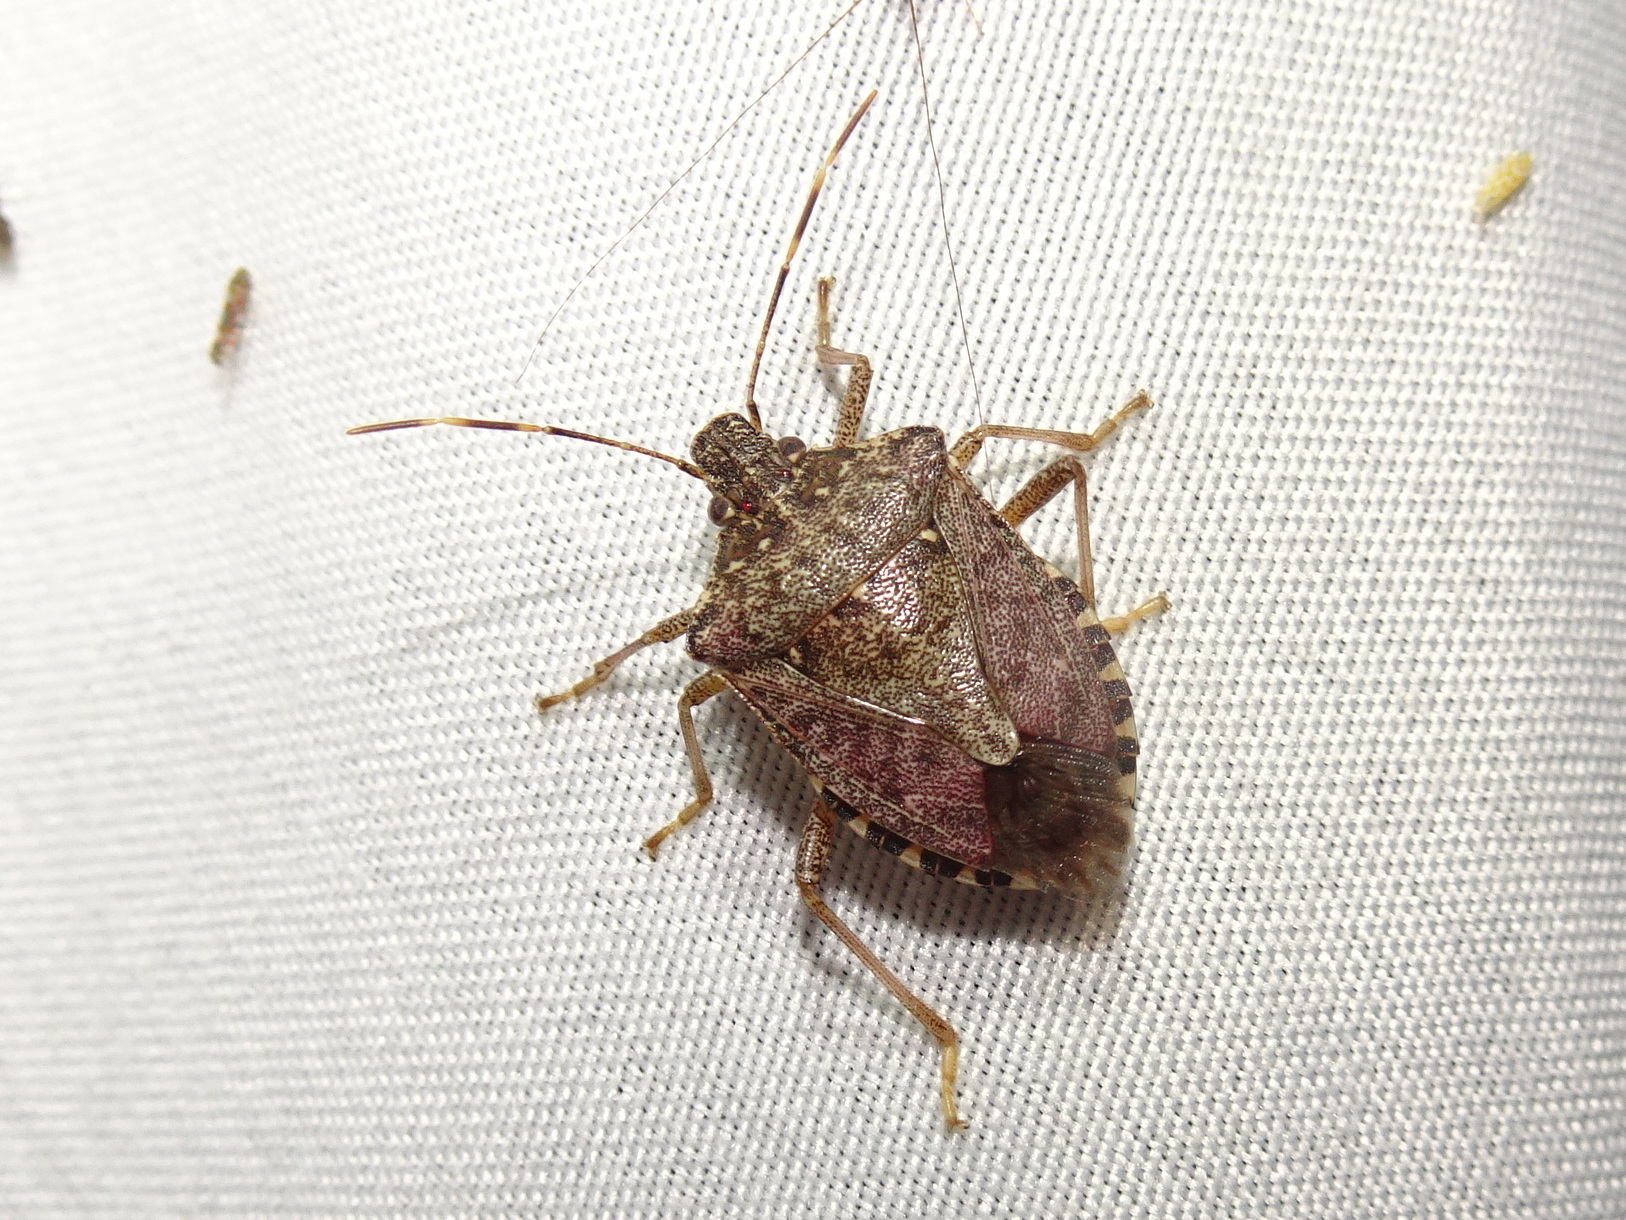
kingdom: Animalia
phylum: Arthropoda
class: Insecta
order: Hemiptera
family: Pentatomidae
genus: Halyomorpha
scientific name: Halyomorpha halys
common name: Brown marmorated stink bug
